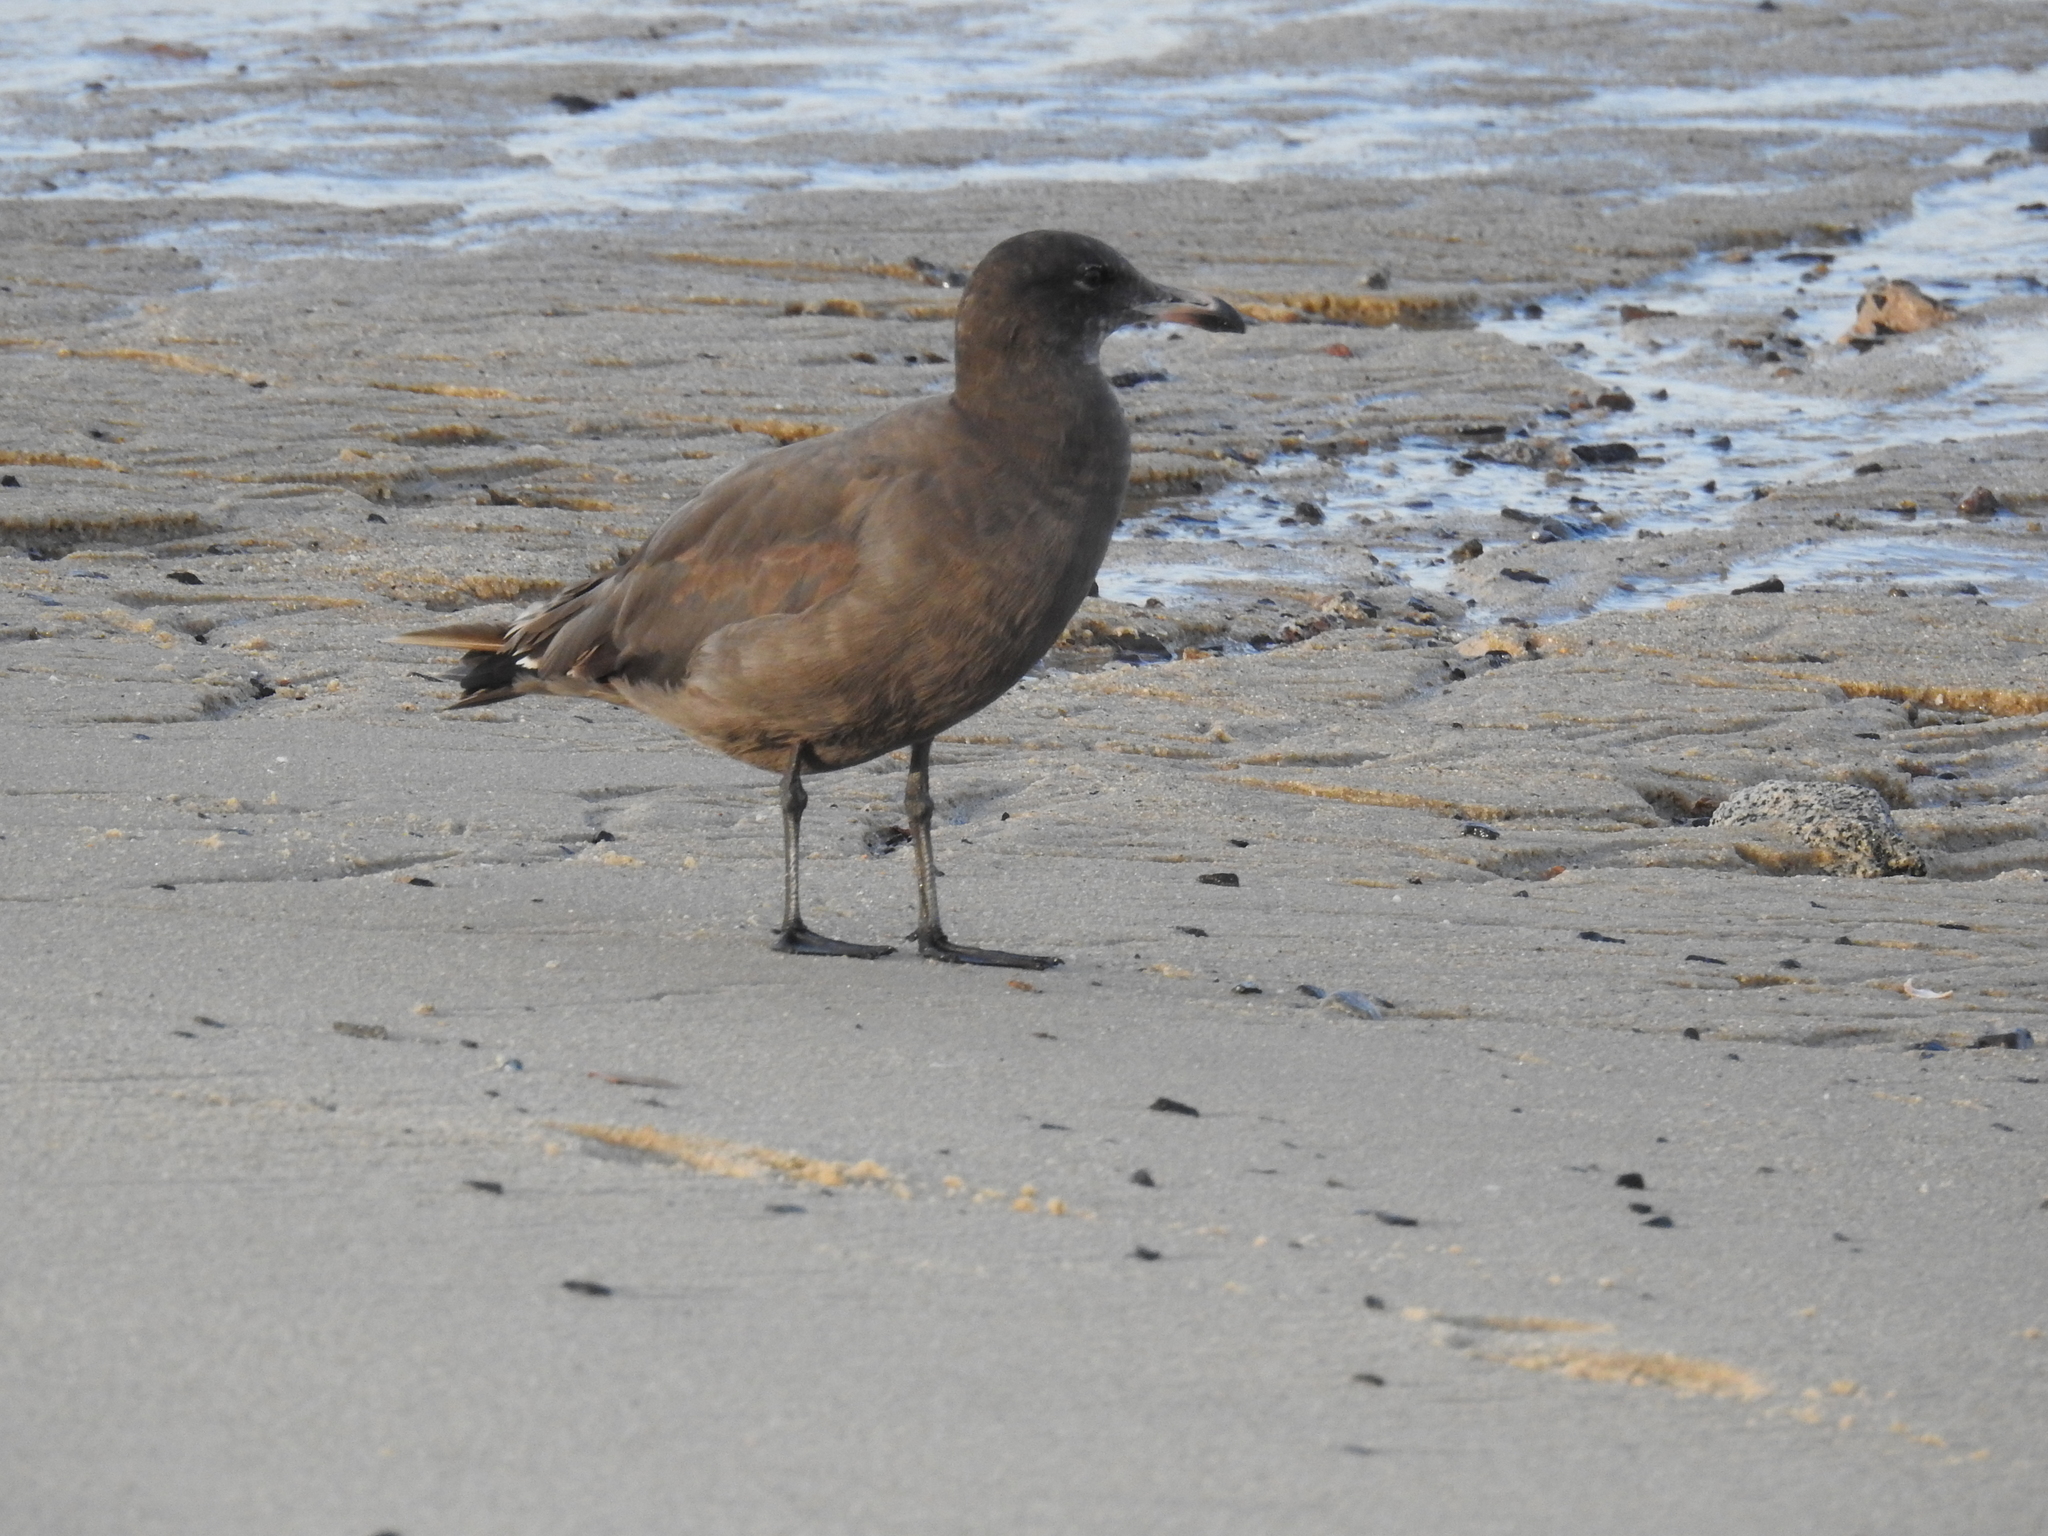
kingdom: Animalia
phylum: Chordata
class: Aves
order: Charadriiformes
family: Laridae
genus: Larus
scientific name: Larus heermanni
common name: Heermann's gull
